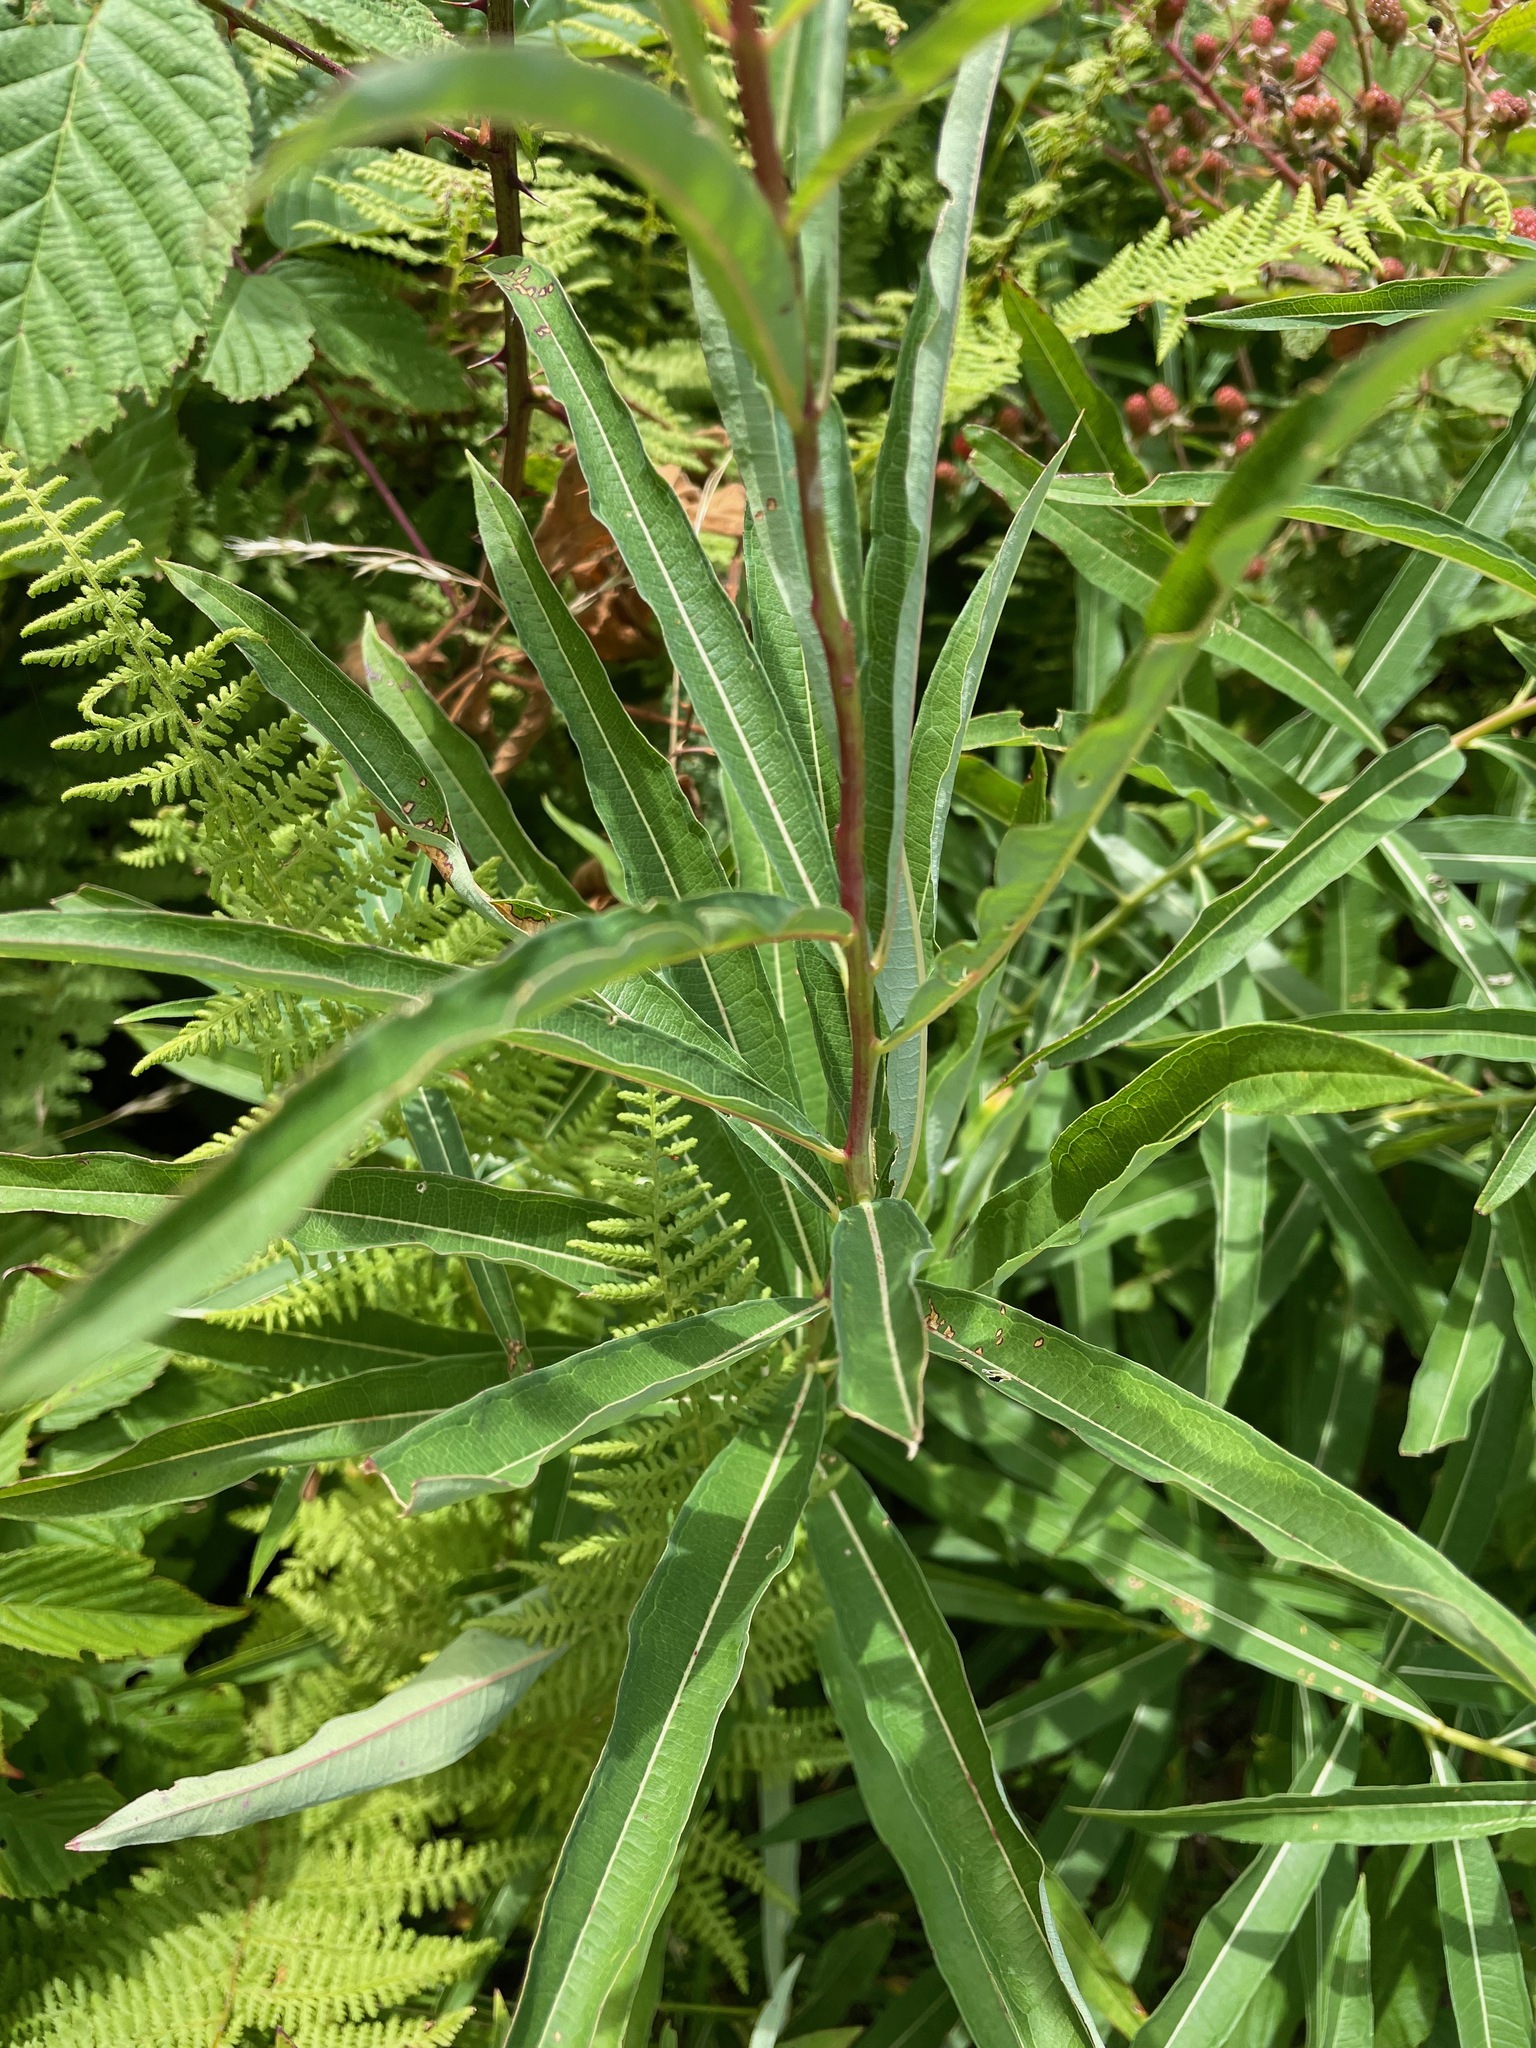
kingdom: Plantae
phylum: Tracheophyta
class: Magnoliopsida
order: Myrtales
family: Onagraceae
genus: Chamaenerion
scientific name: Chamaenerion angustifolium
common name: Fireweed
